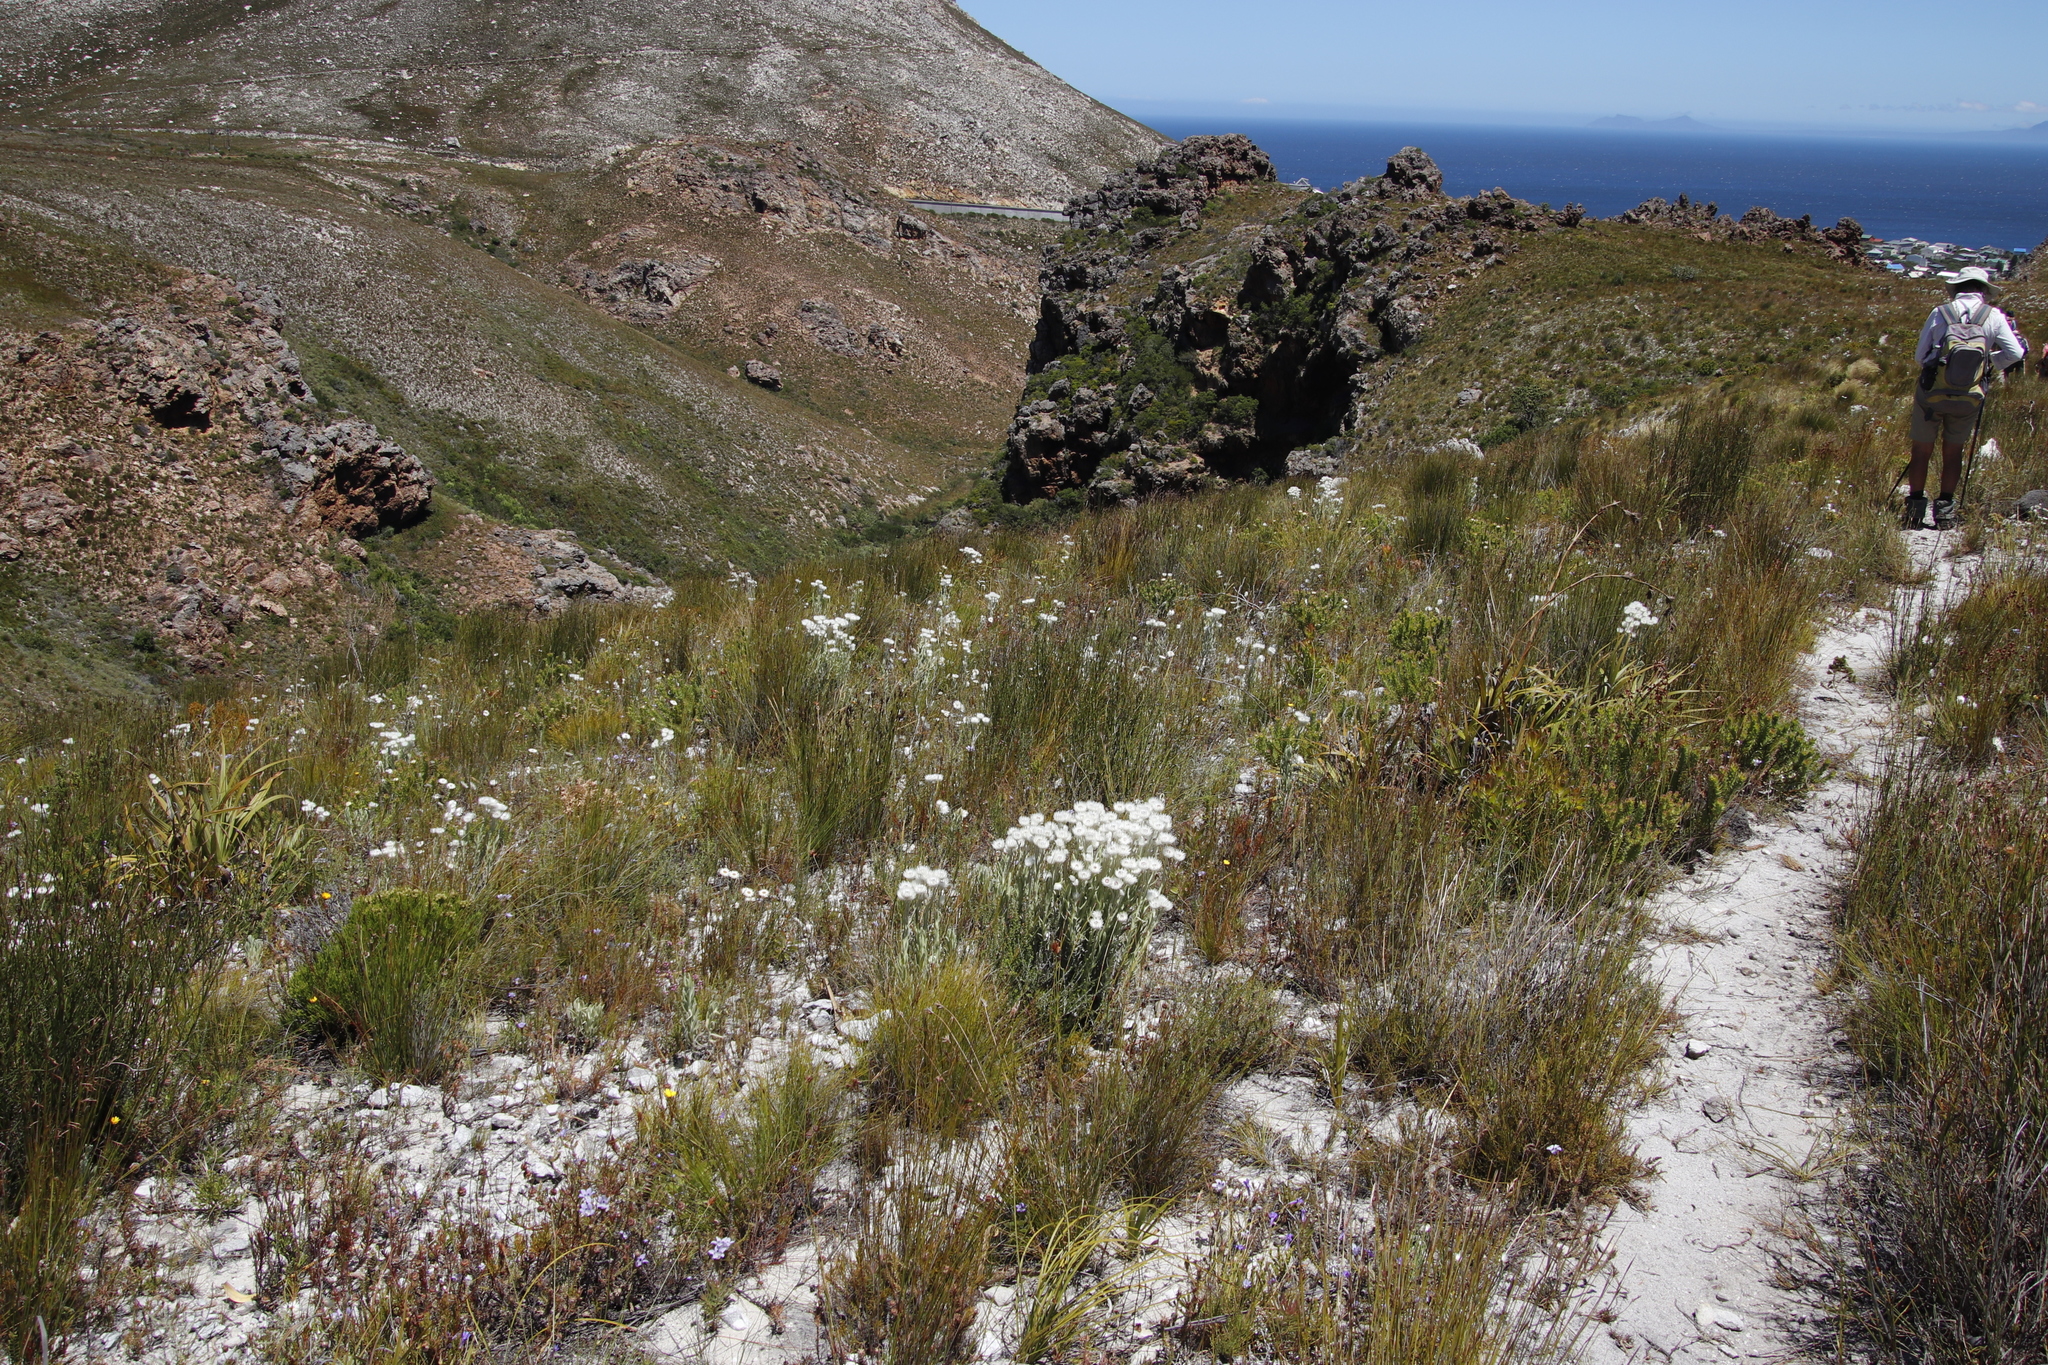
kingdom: Plantae
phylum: Tracheophyta
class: Magnoliopsida
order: Asterales
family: Asteraceae
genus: Syncarpha
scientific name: Syncarpha vestita
